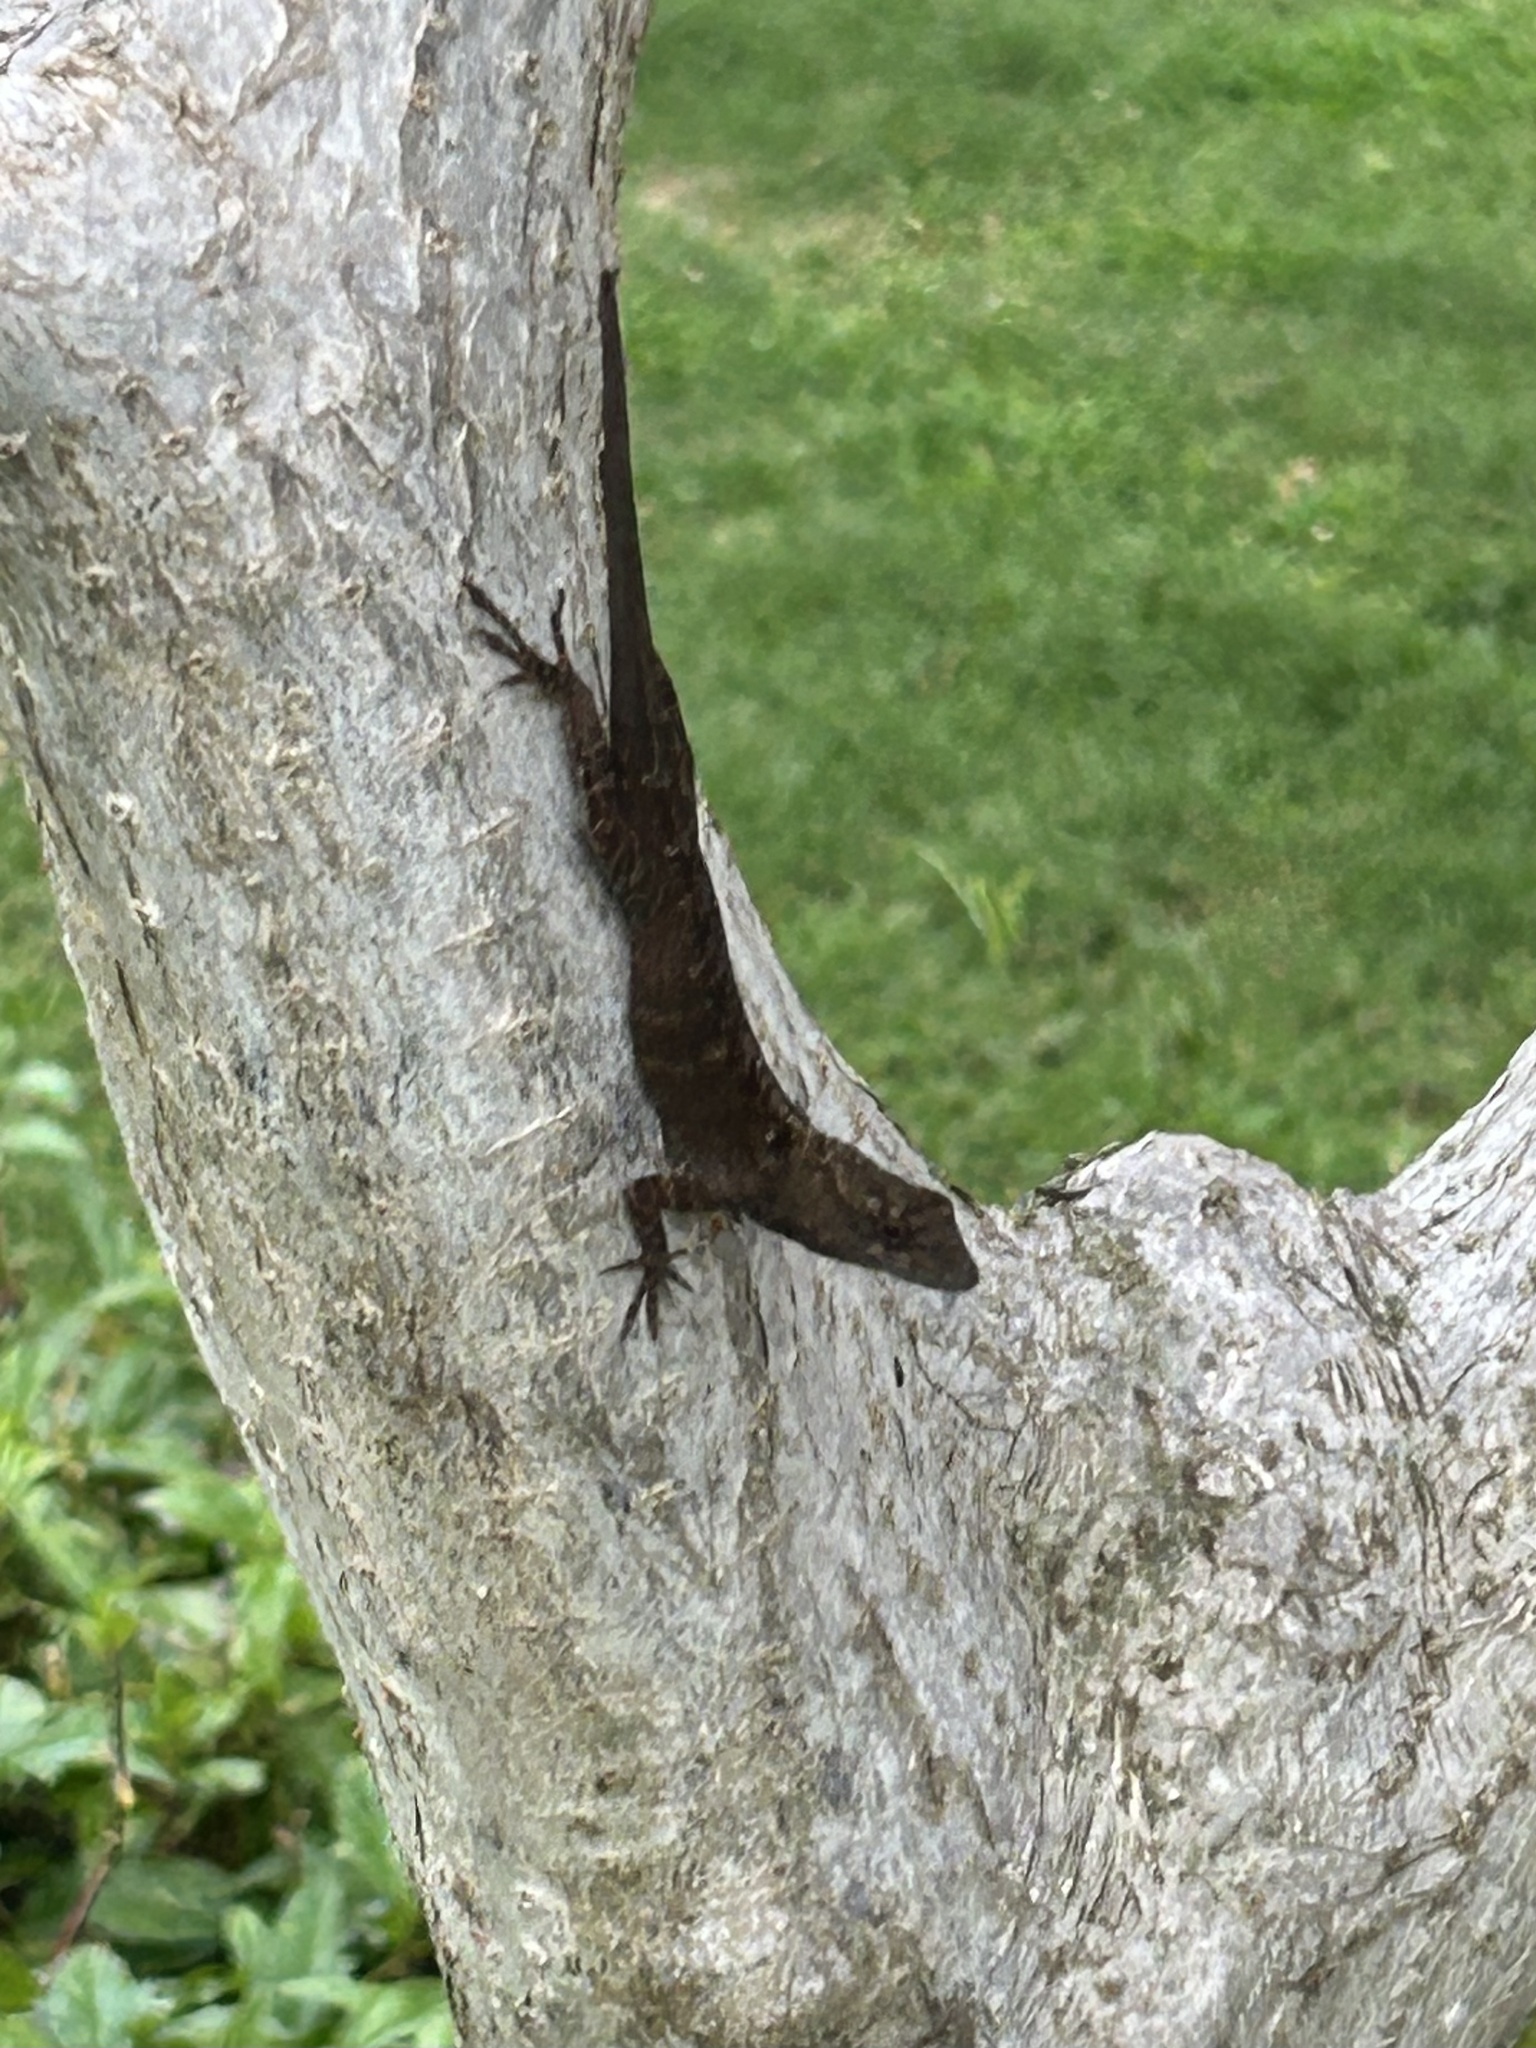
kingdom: Animalia
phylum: Chordata
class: Squamata
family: Dactyloidae
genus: Anolis
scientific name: Anolis sagrei
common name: Brown anole
